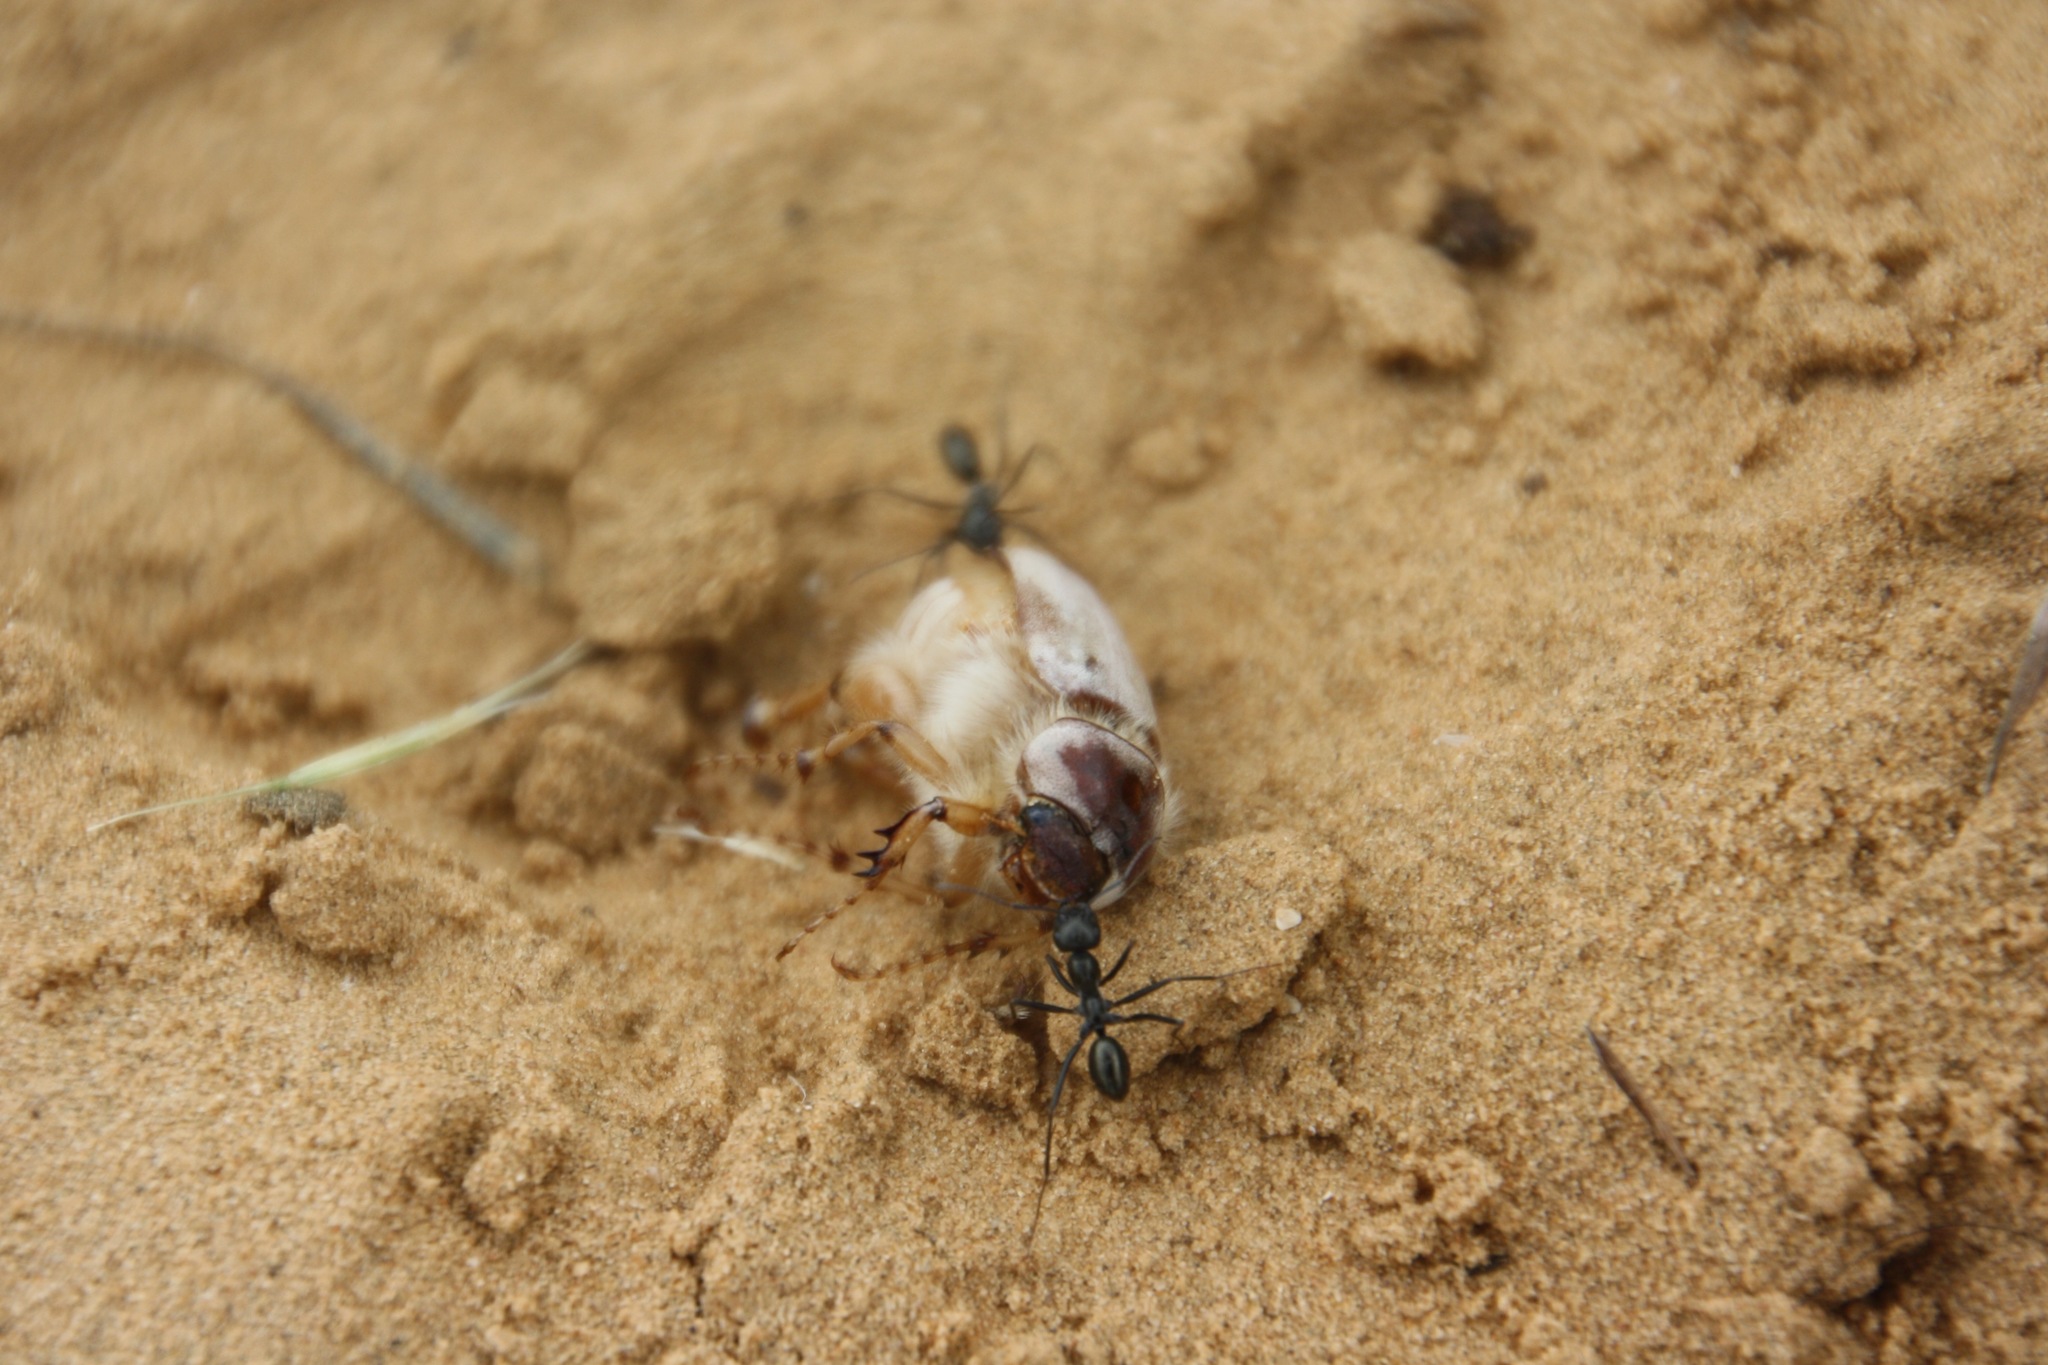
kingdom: Animalia
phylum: Arthropoda
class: Insecta
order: Coleoptera
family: Scarabaeidae
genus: Chioneosoma
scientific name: Chioneosoma pulvereum
